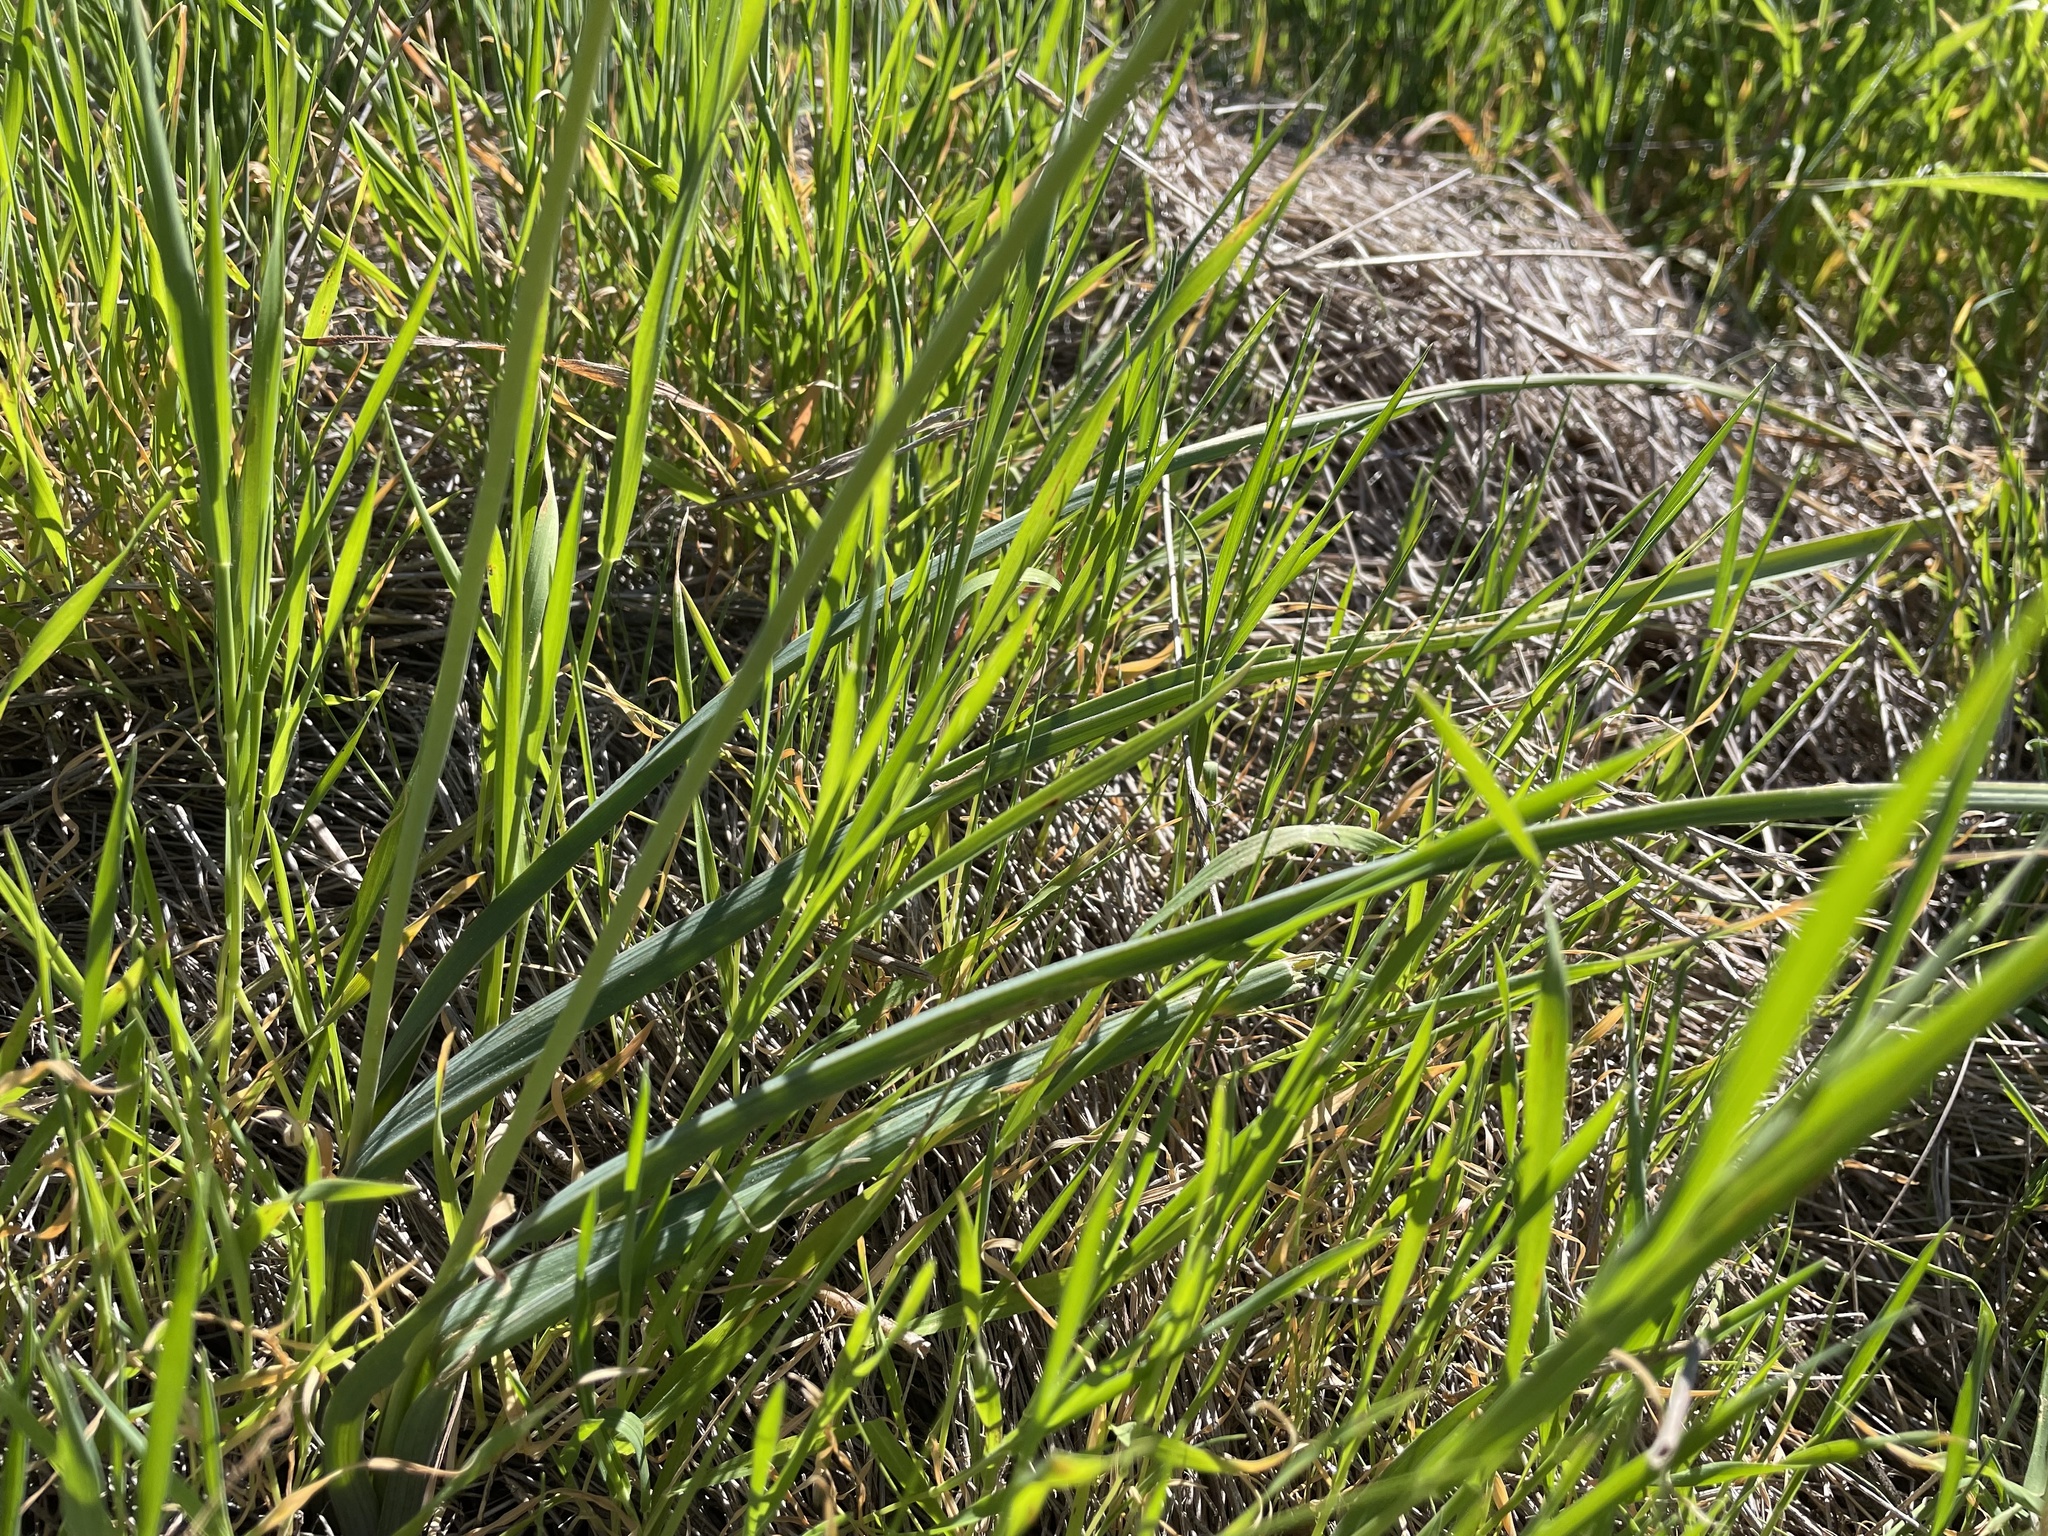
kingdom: Plantae
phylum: Tracheophyta
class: Liliopsida
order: Asparagales
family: Asparagaceae
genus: Dipterostemon
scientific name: Dipterostemon capitatus
